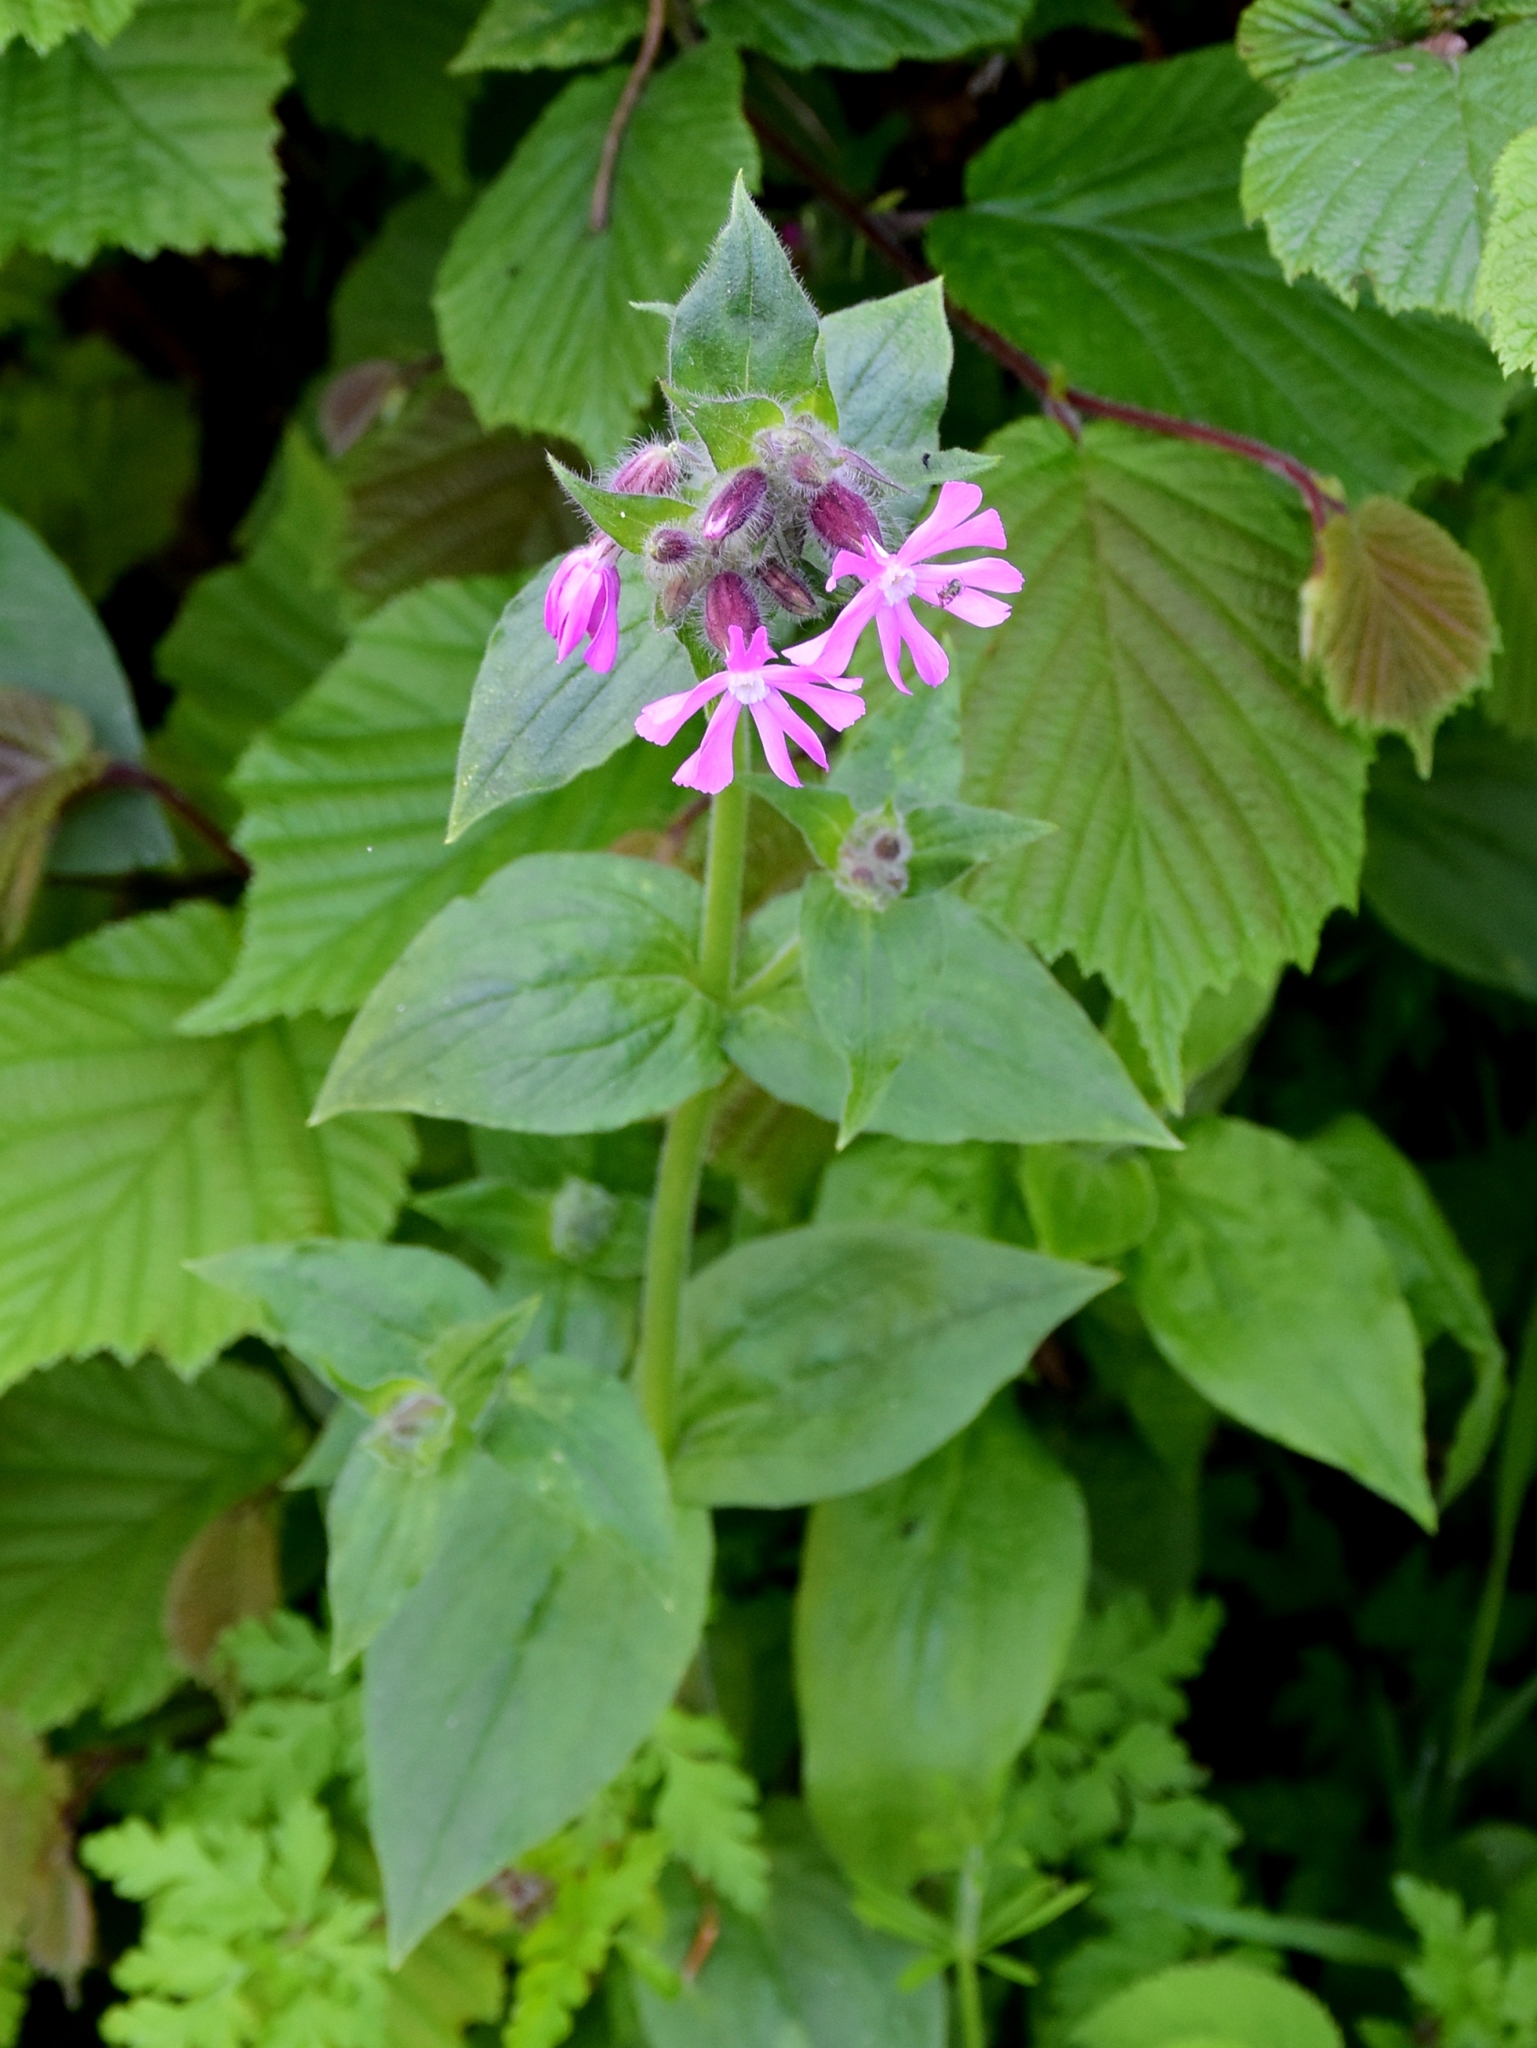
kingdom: Plantae
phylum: Tracheophyta
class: Magnoliopsida
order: Caryophyllales
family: Caryophyllaceae
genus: Silene
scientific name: Silene dioica
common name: Red campion
